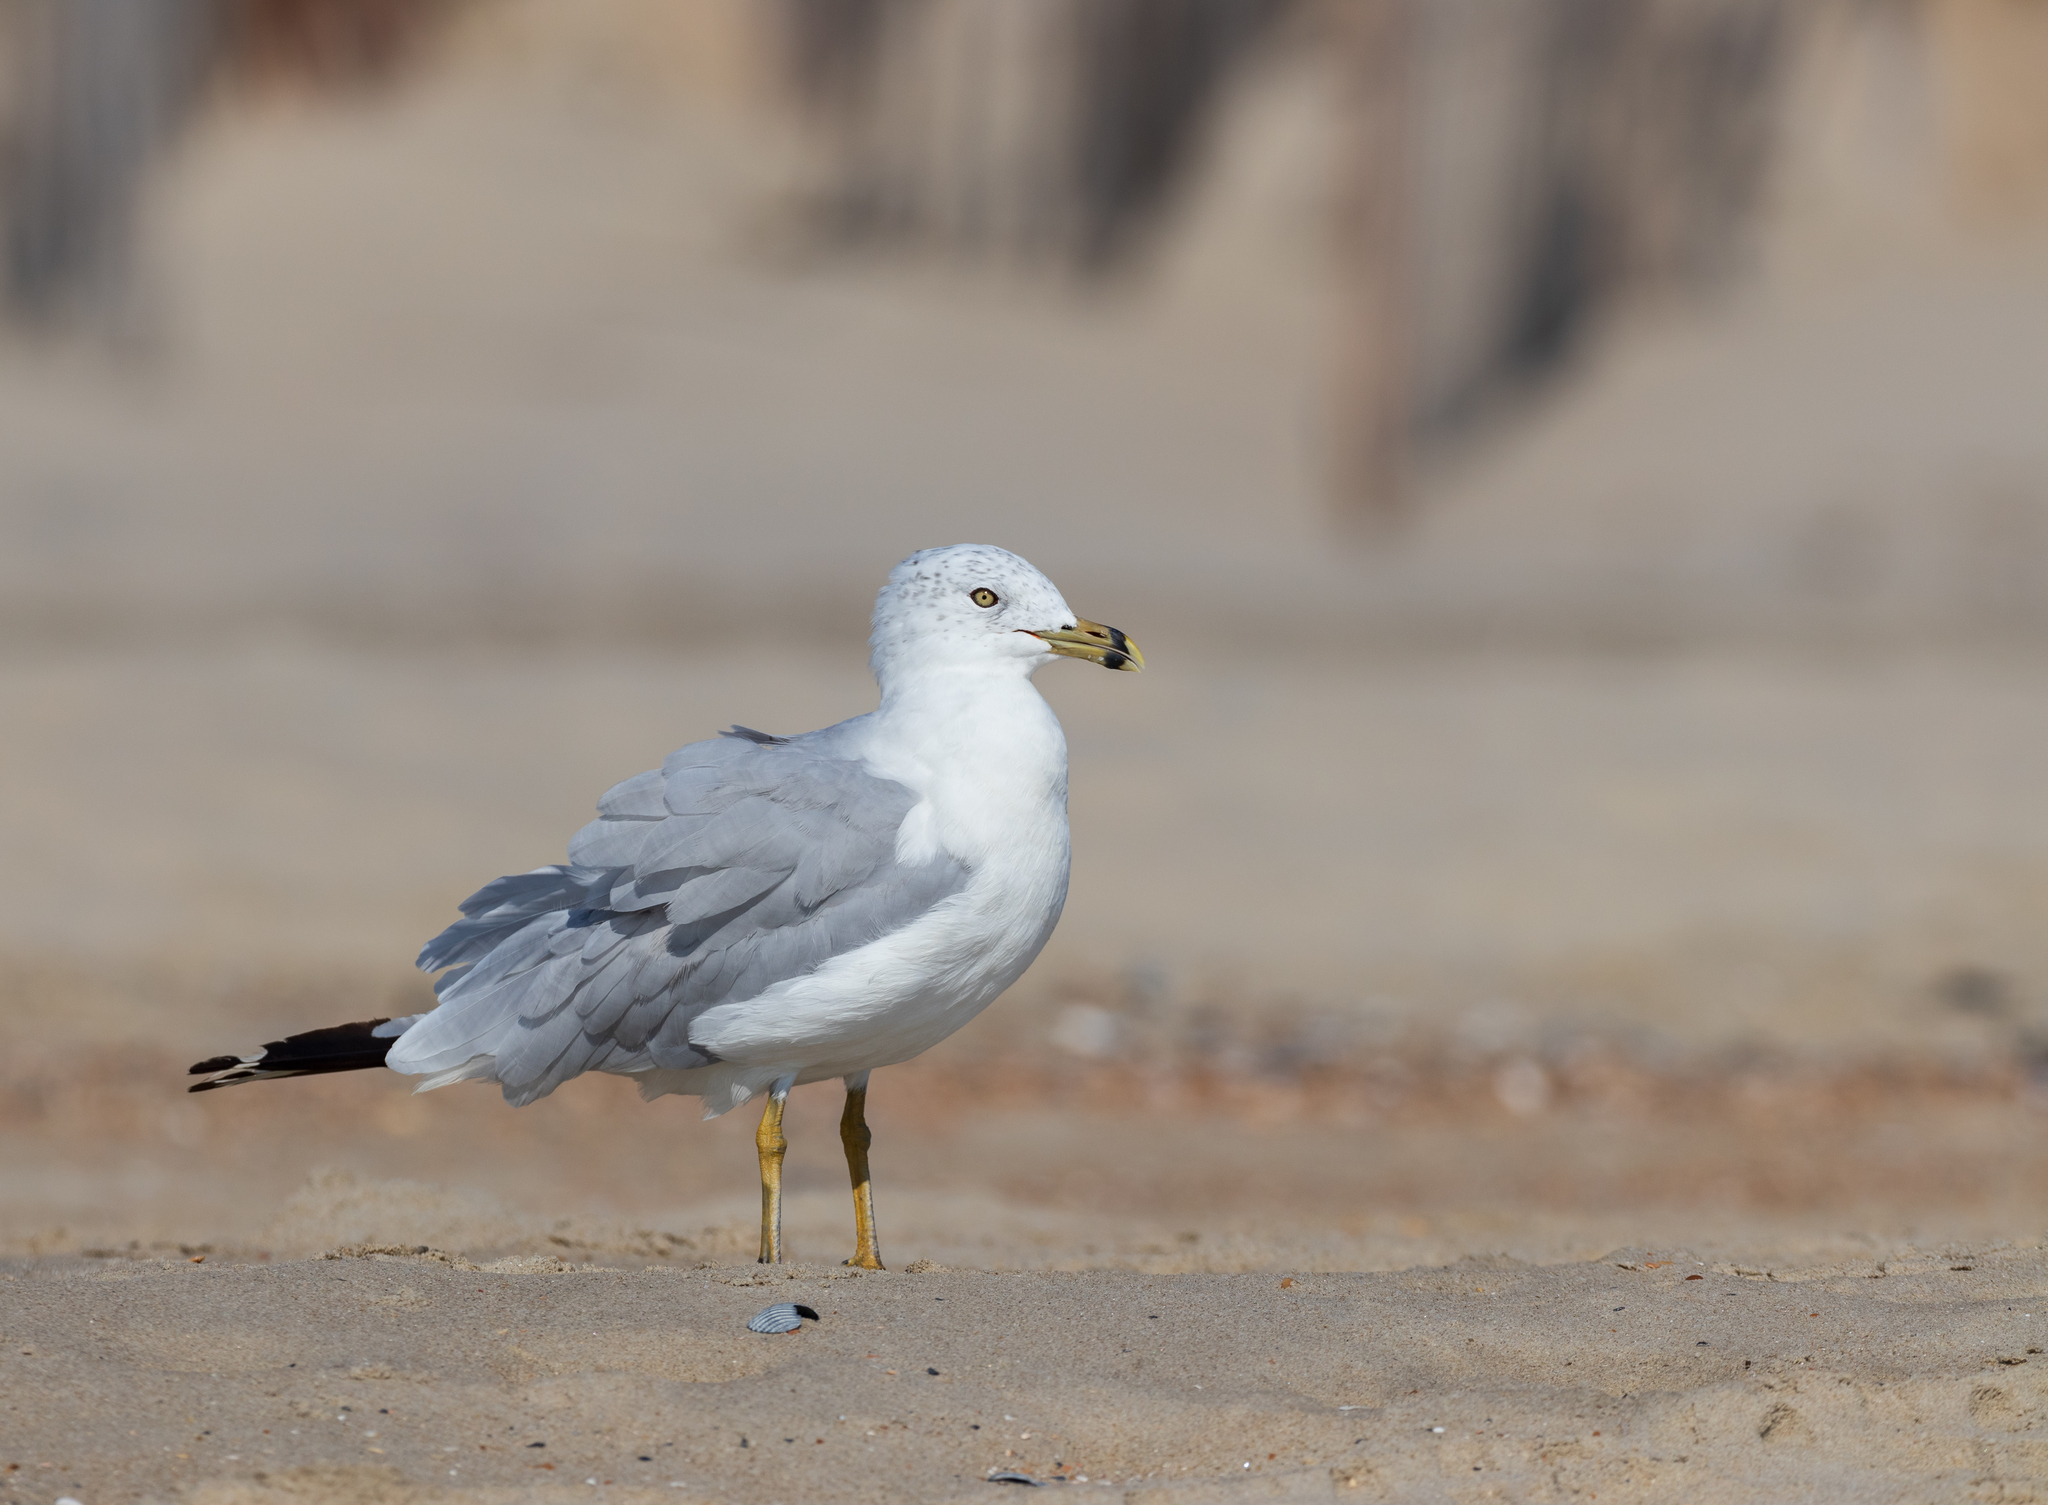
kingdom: Animalia
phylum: Chordata
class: Aves
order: Charadriiformes
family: Laridae
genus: Larus
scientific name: Larus delawarensis
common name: Ring-billed gull
